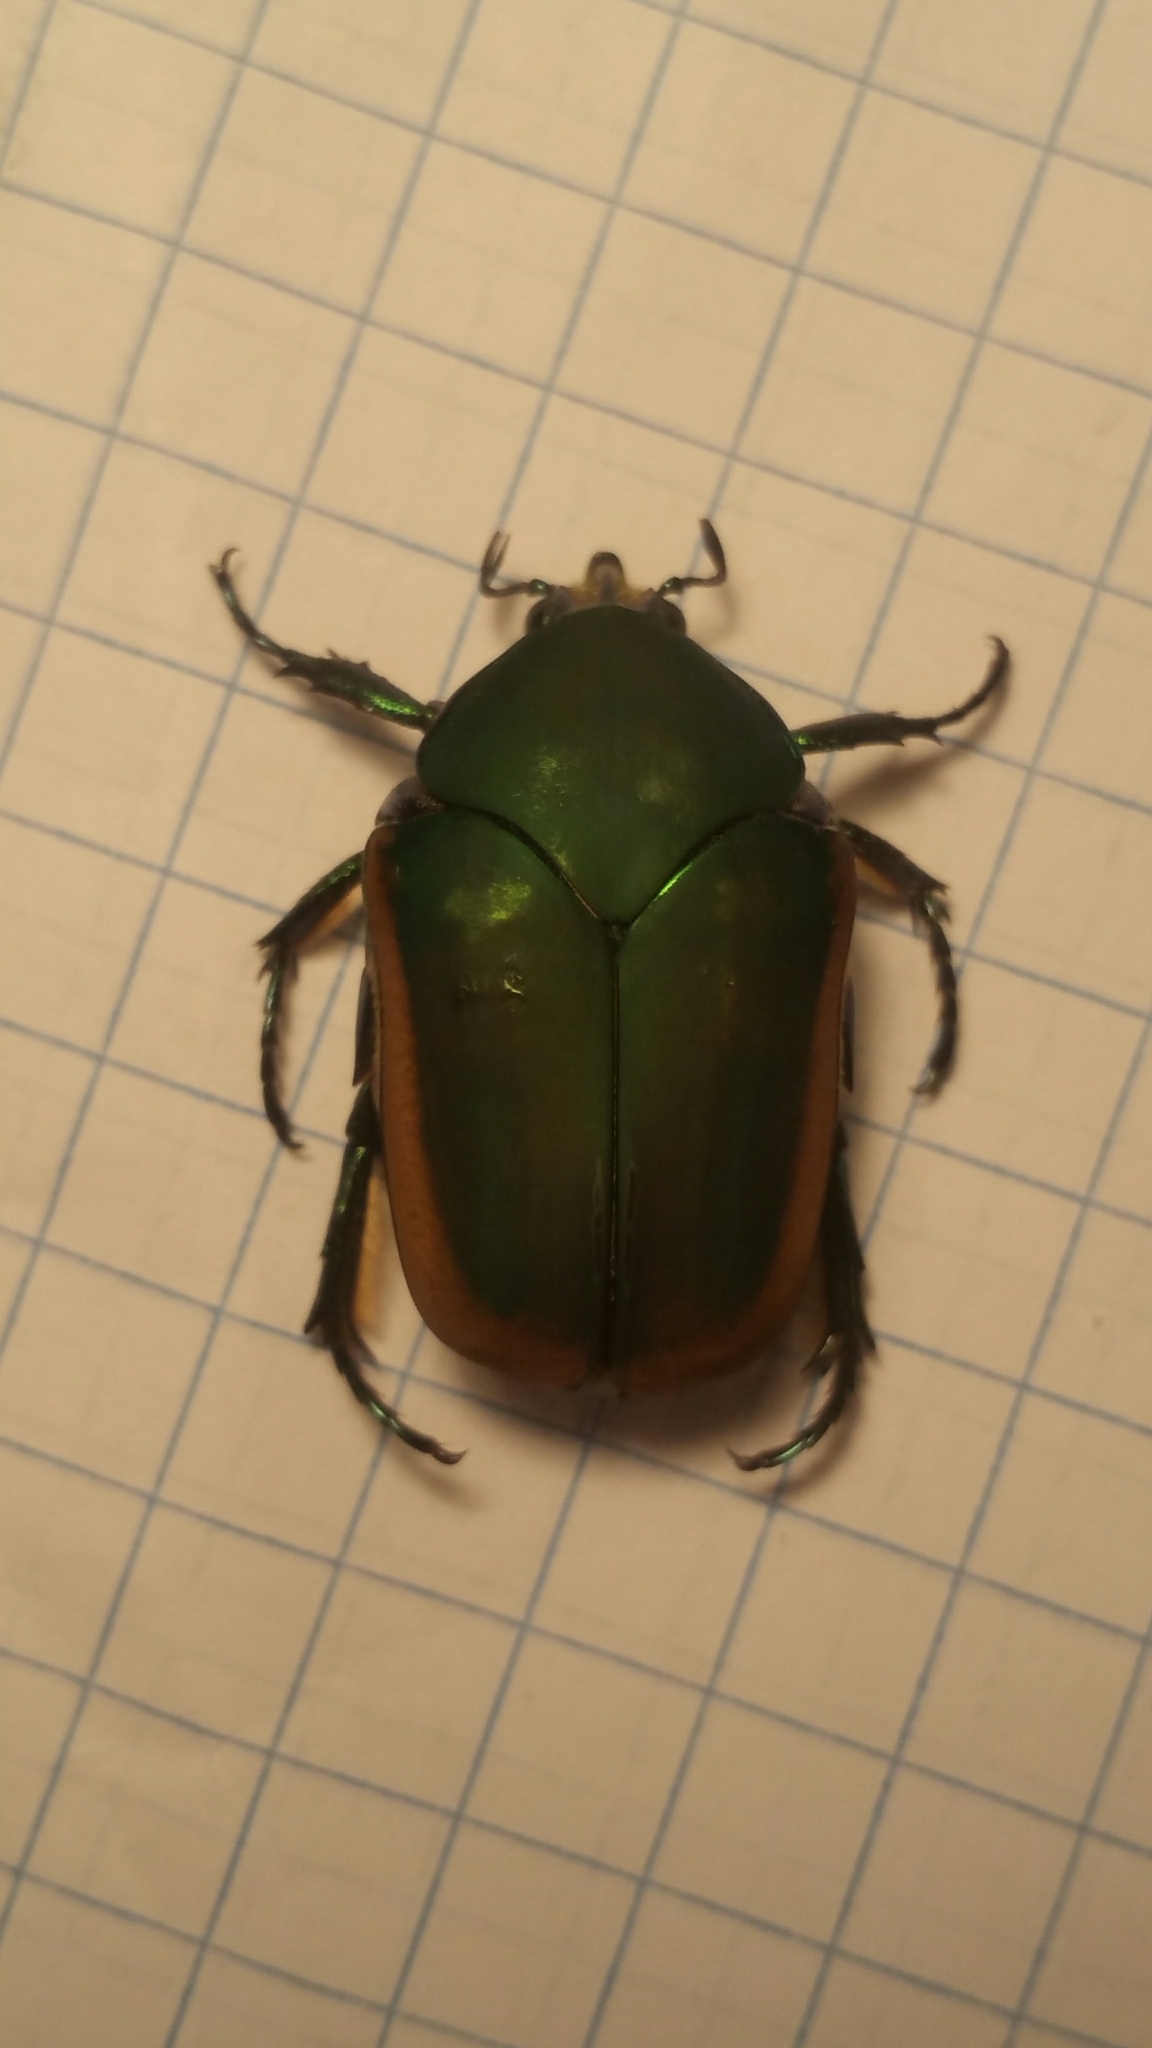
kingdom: Animalia
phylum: Arthropoda
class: Insecta
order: Coleoptera
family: Scarabaeidae
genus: Cotinis
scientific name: Cotinis mutabilis
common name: Figeater beetle
